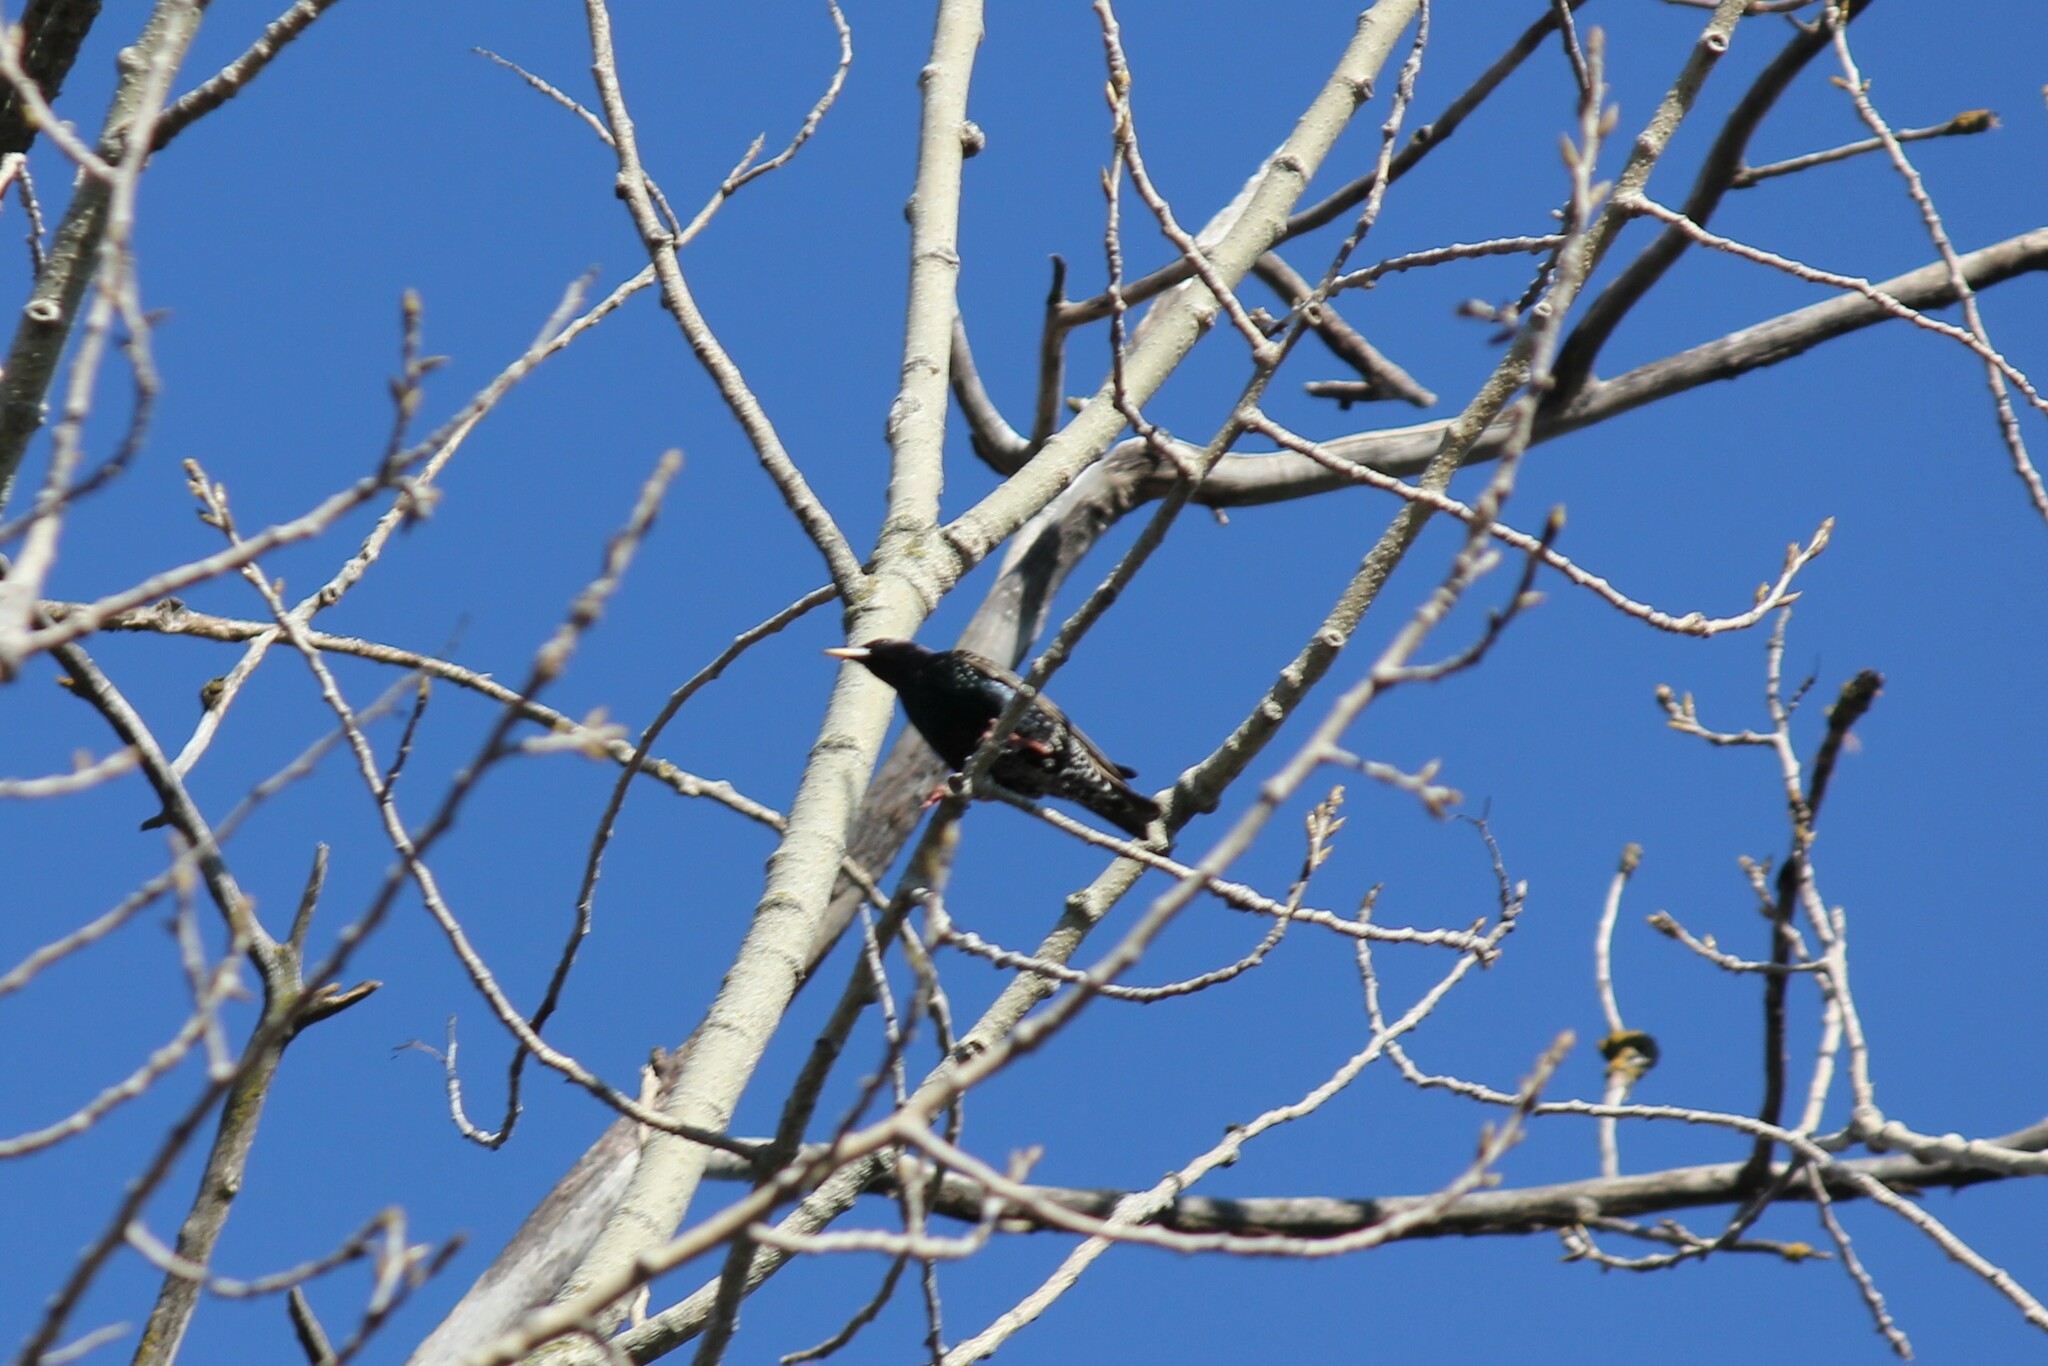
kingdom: Animalia
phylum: Chordata
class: Aves
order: Passeriformes
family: Sturnidae
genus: Sturnus
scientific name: Sturnus vulgaris
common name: Common starling
